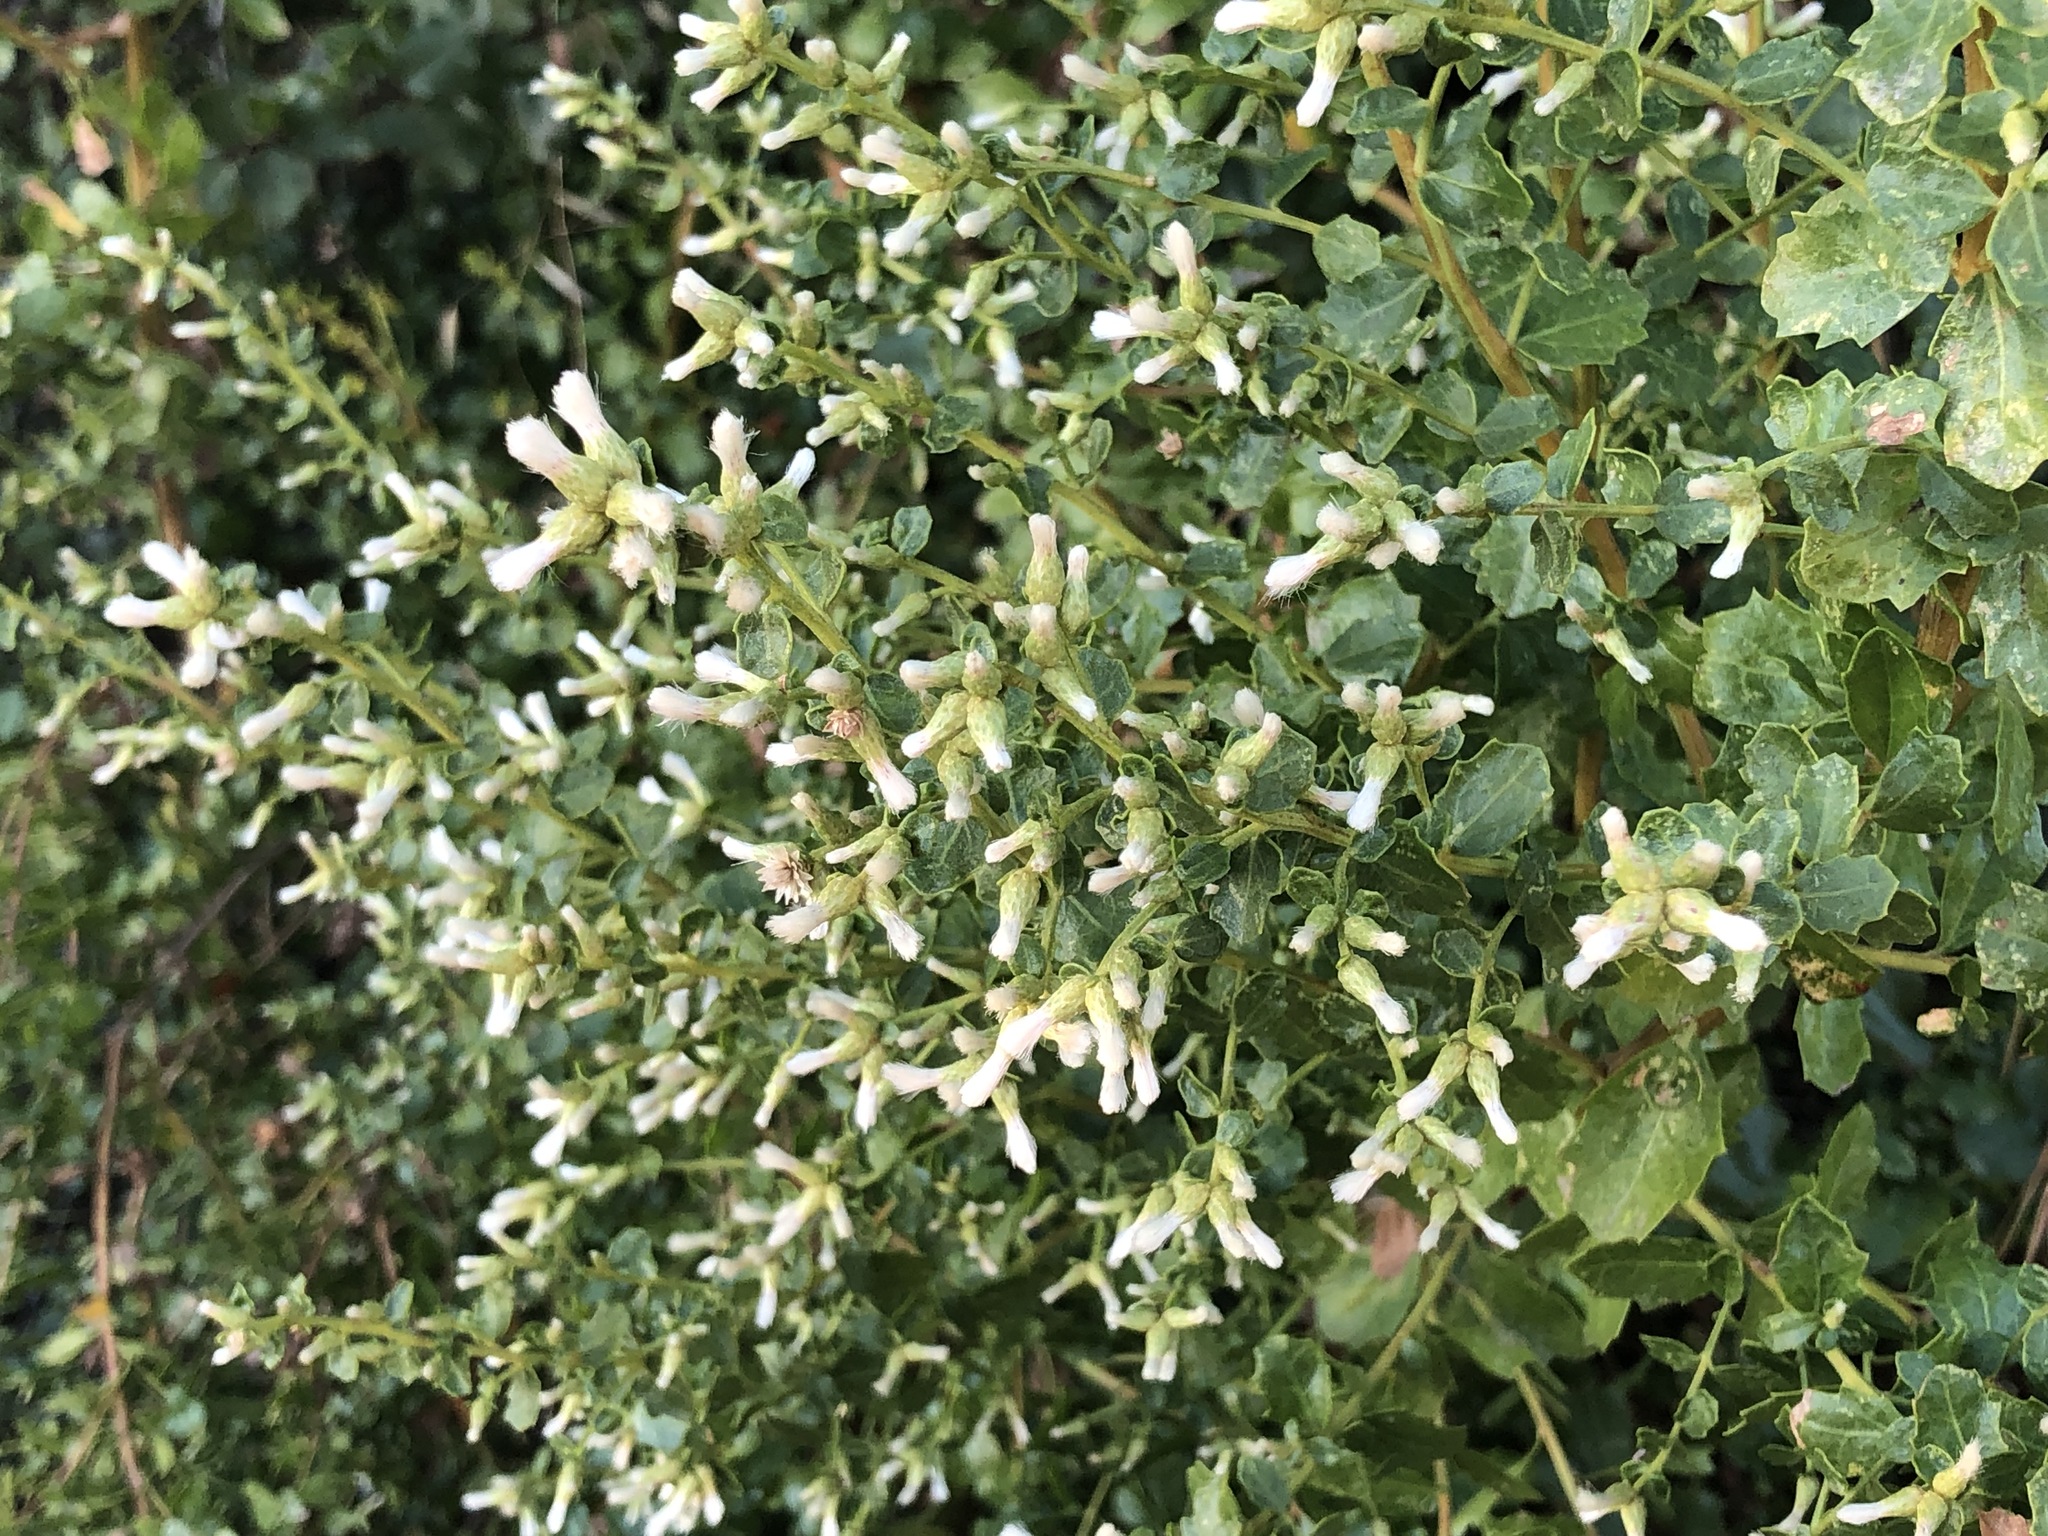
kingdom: Plantae
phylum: Tracheophyta
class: Magnoliopsida
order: Asterales
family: Asteraceae
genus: Baccharis
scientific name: Baccharis pilularis
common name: Coyotebrush
